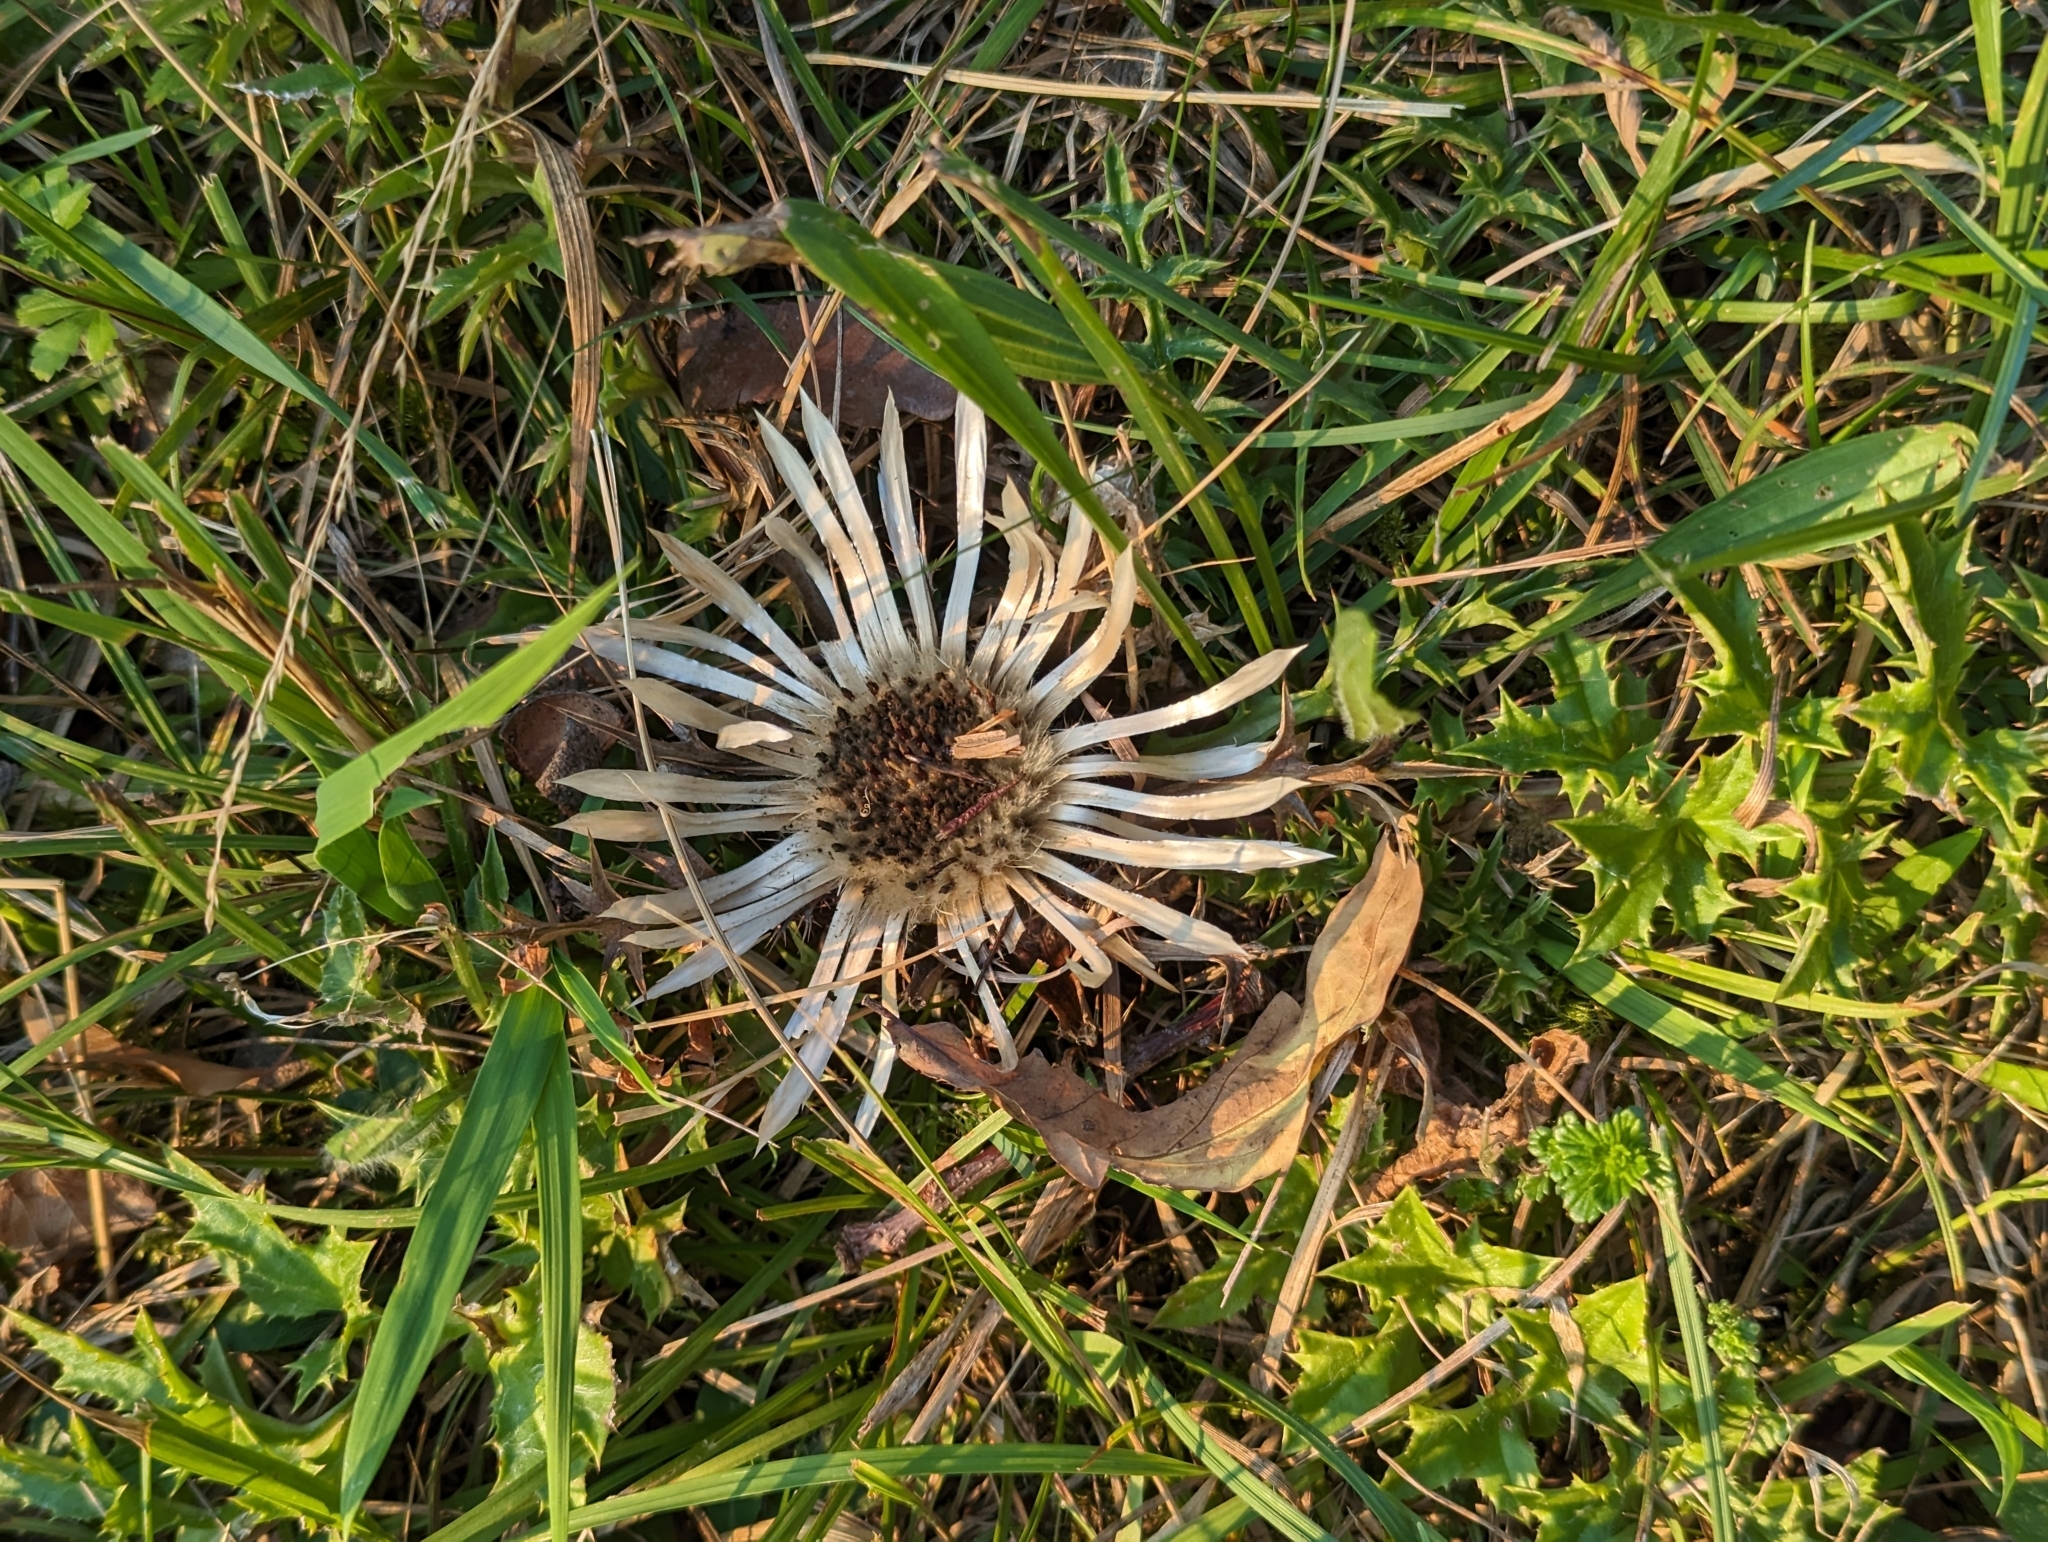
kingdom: Plantae
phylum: Tracheophyta
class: Magnoliopsida
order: Asterales
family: Asteraceae
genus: Carlina
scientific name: Carlina acaulis
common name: Stemless carline thistle
